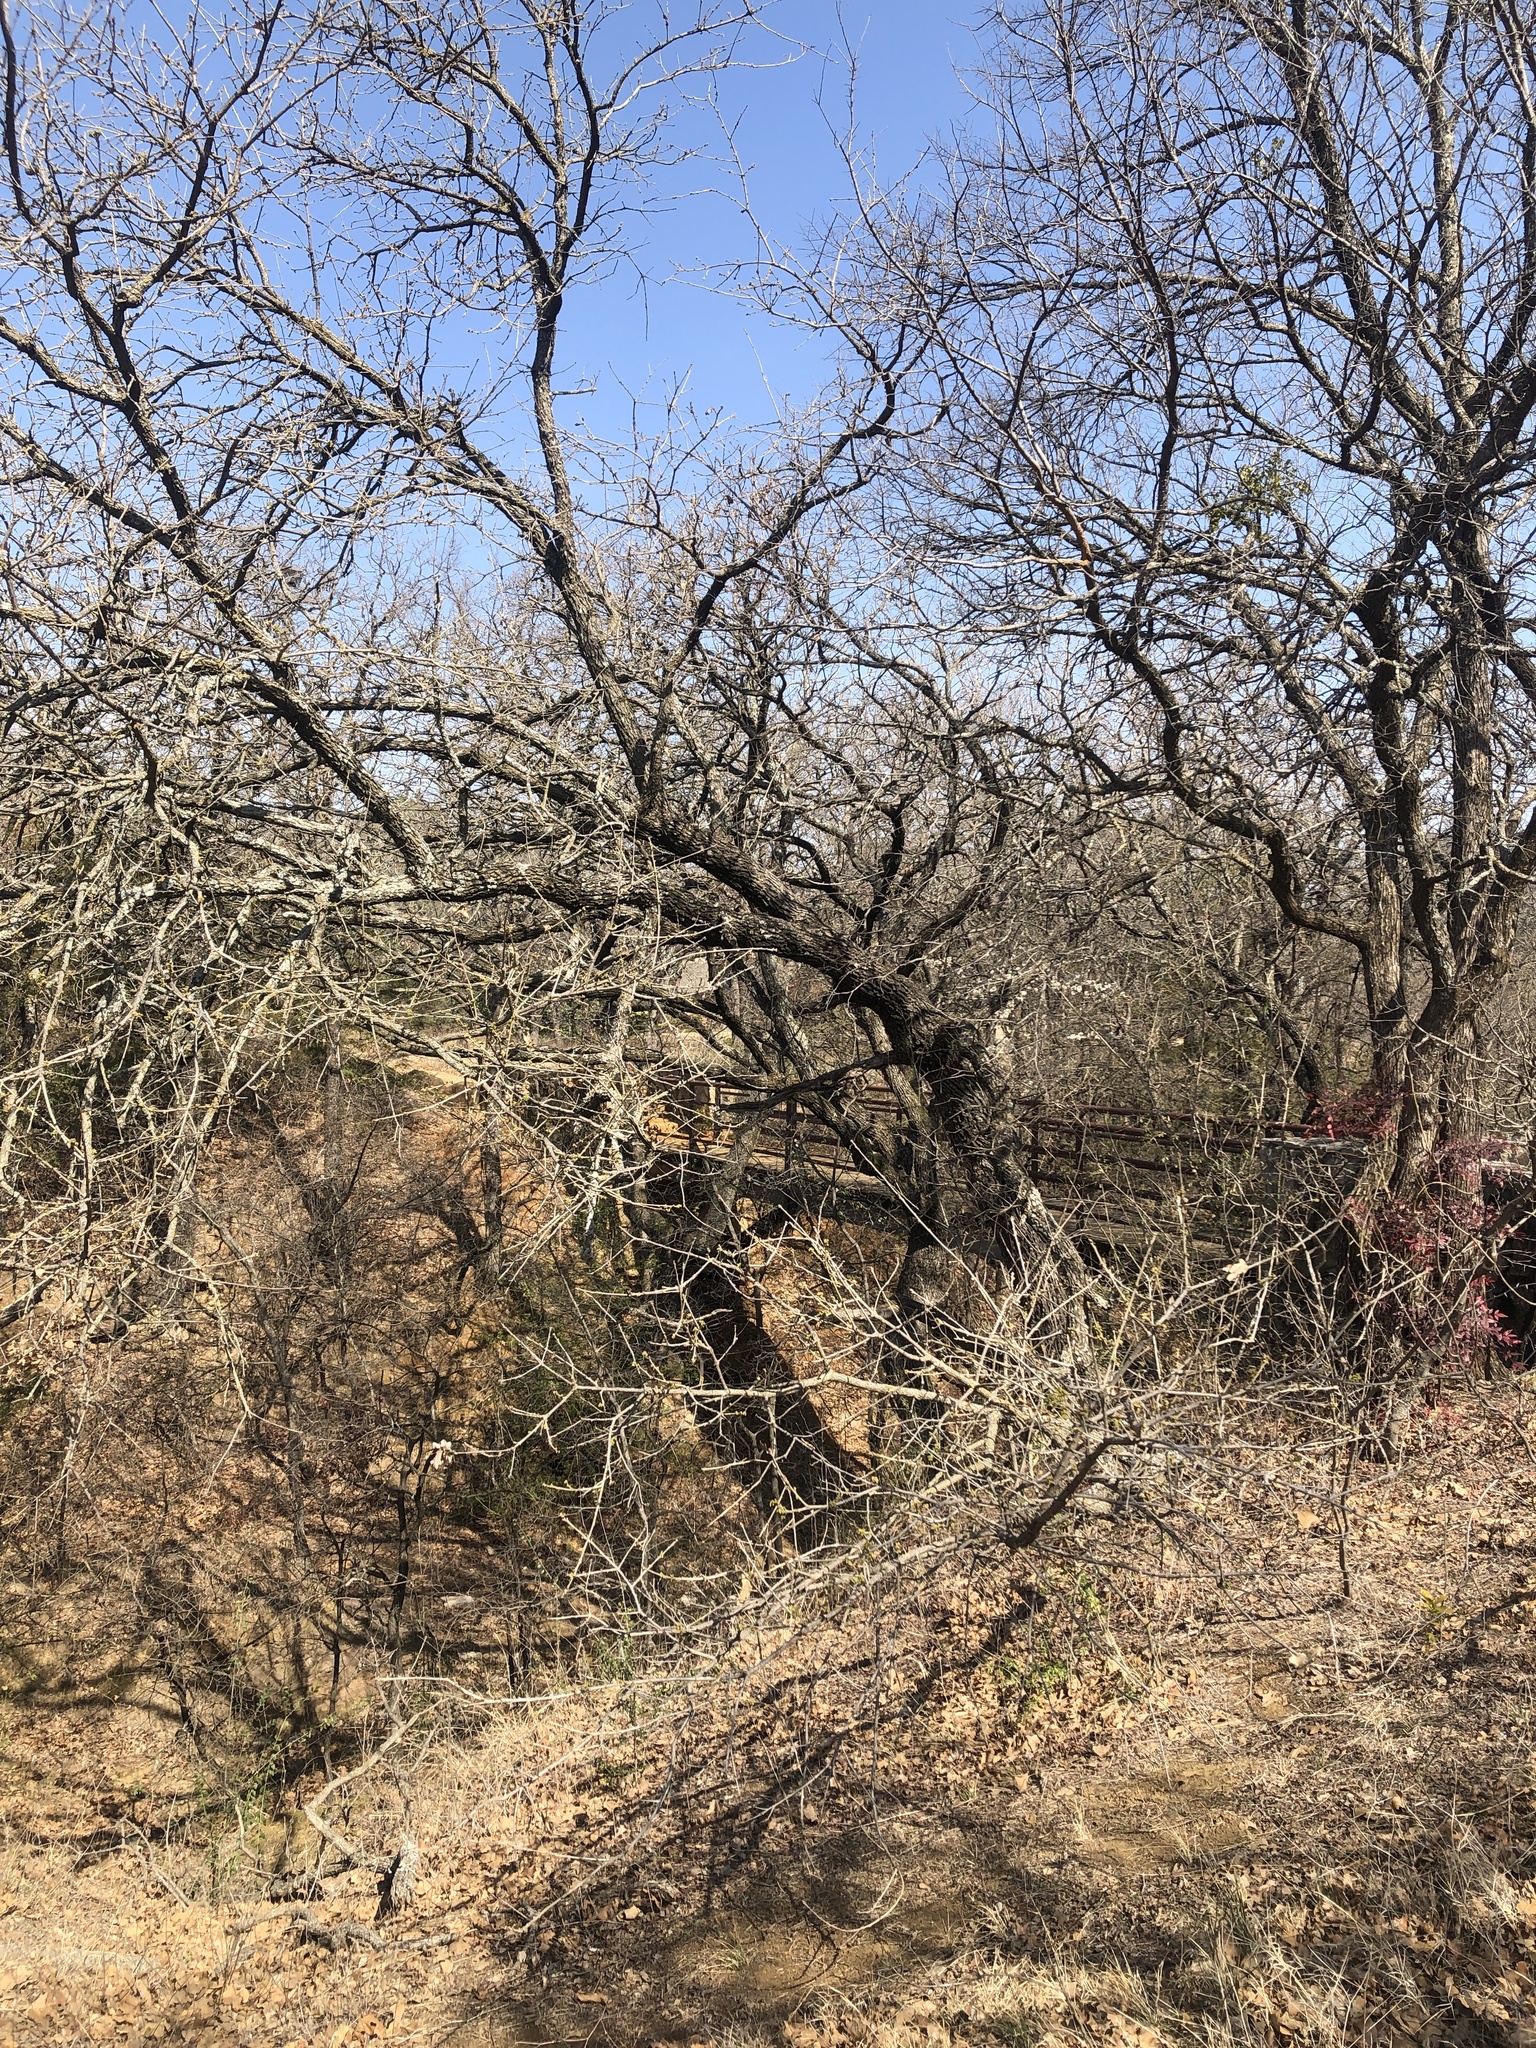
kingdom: Plantae
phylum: Tracheophyta
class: Magnoliopsida
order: Fagales
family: Fagaceae
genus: Quercus
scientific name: Quercus stellata
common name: Post oak
